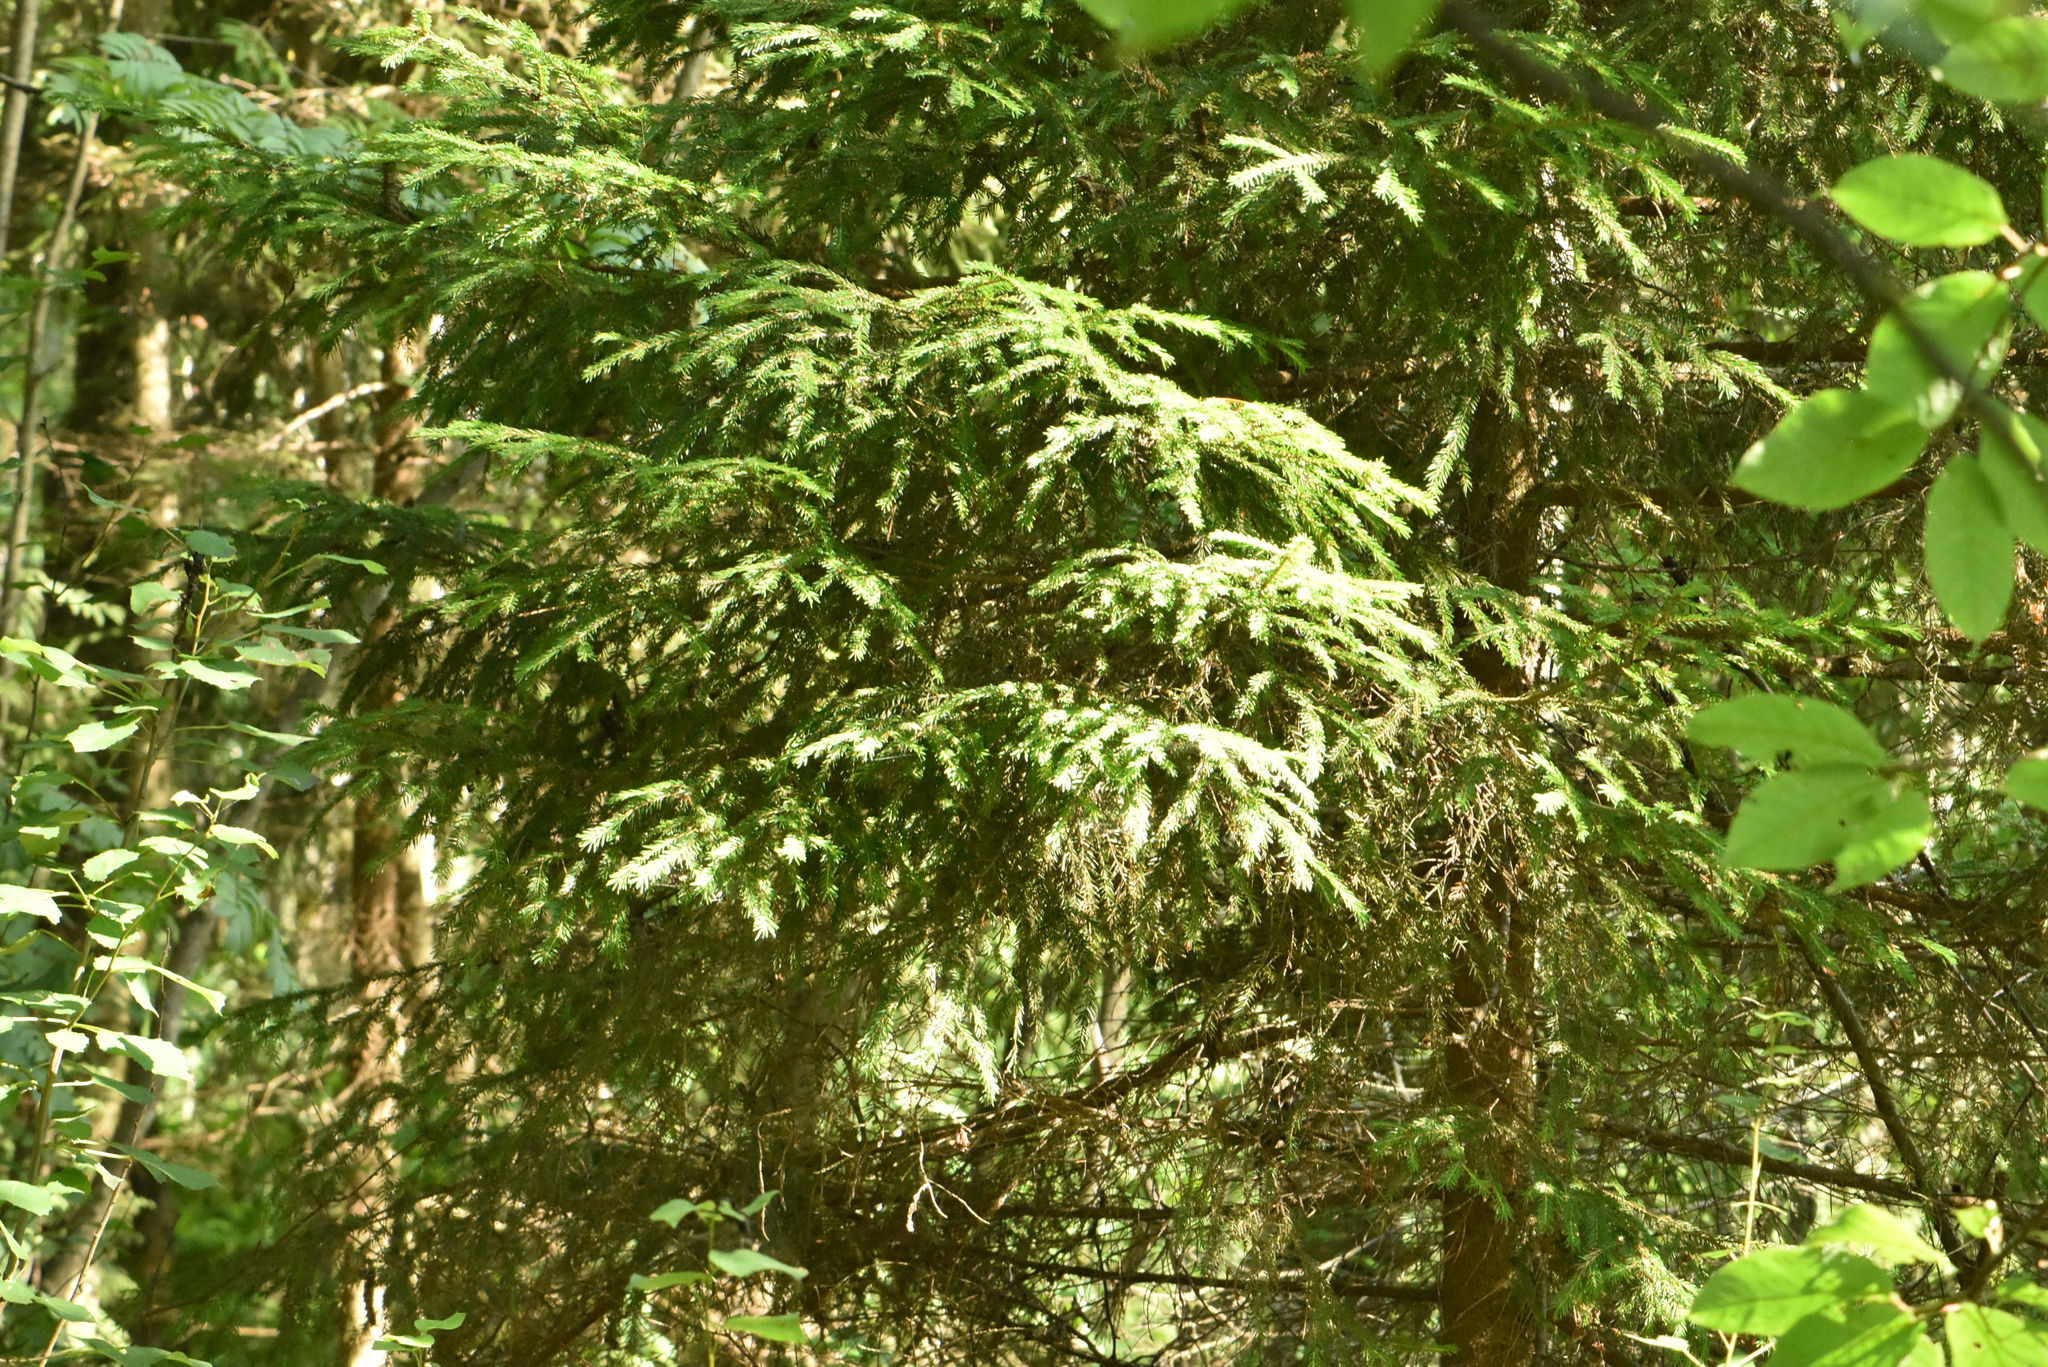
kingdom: Plantae
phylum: Tracheophyta
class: Pinopsida
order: Pinales
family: Pinaceae
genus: Picea
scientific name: Picea abies
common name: Norway spruce
